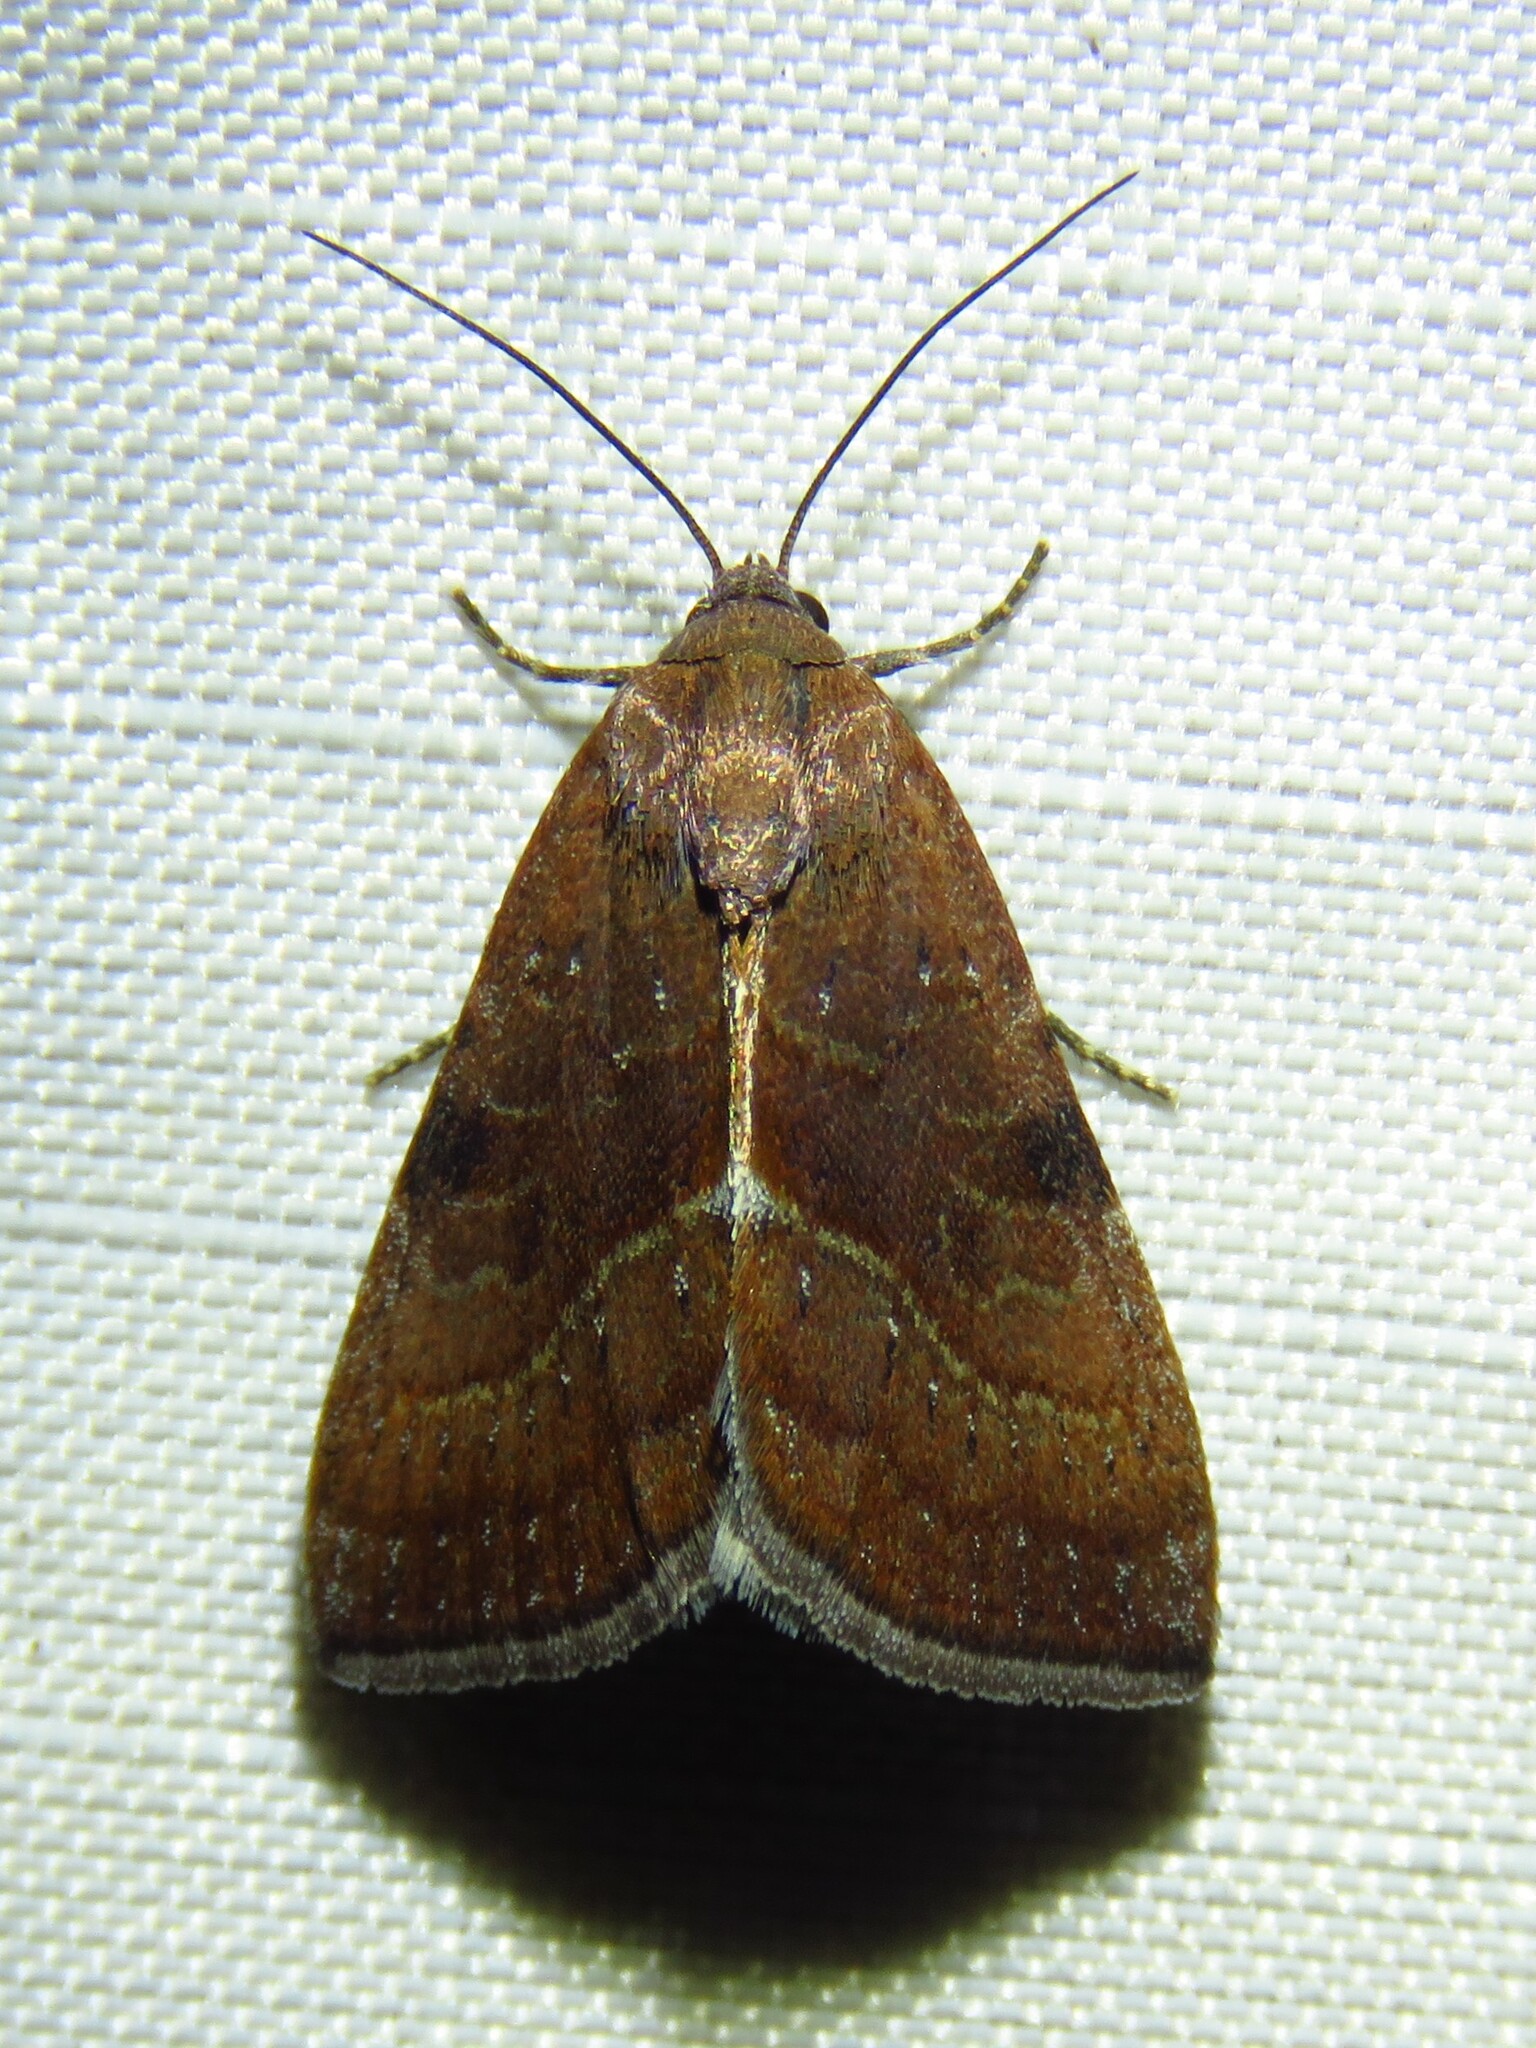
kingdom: Animalia
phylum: Arthropoda
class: Insecta
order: Lepidoptera
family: Noctuidae
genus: Galgula
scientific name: Galgula partita
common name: Wedgeling
